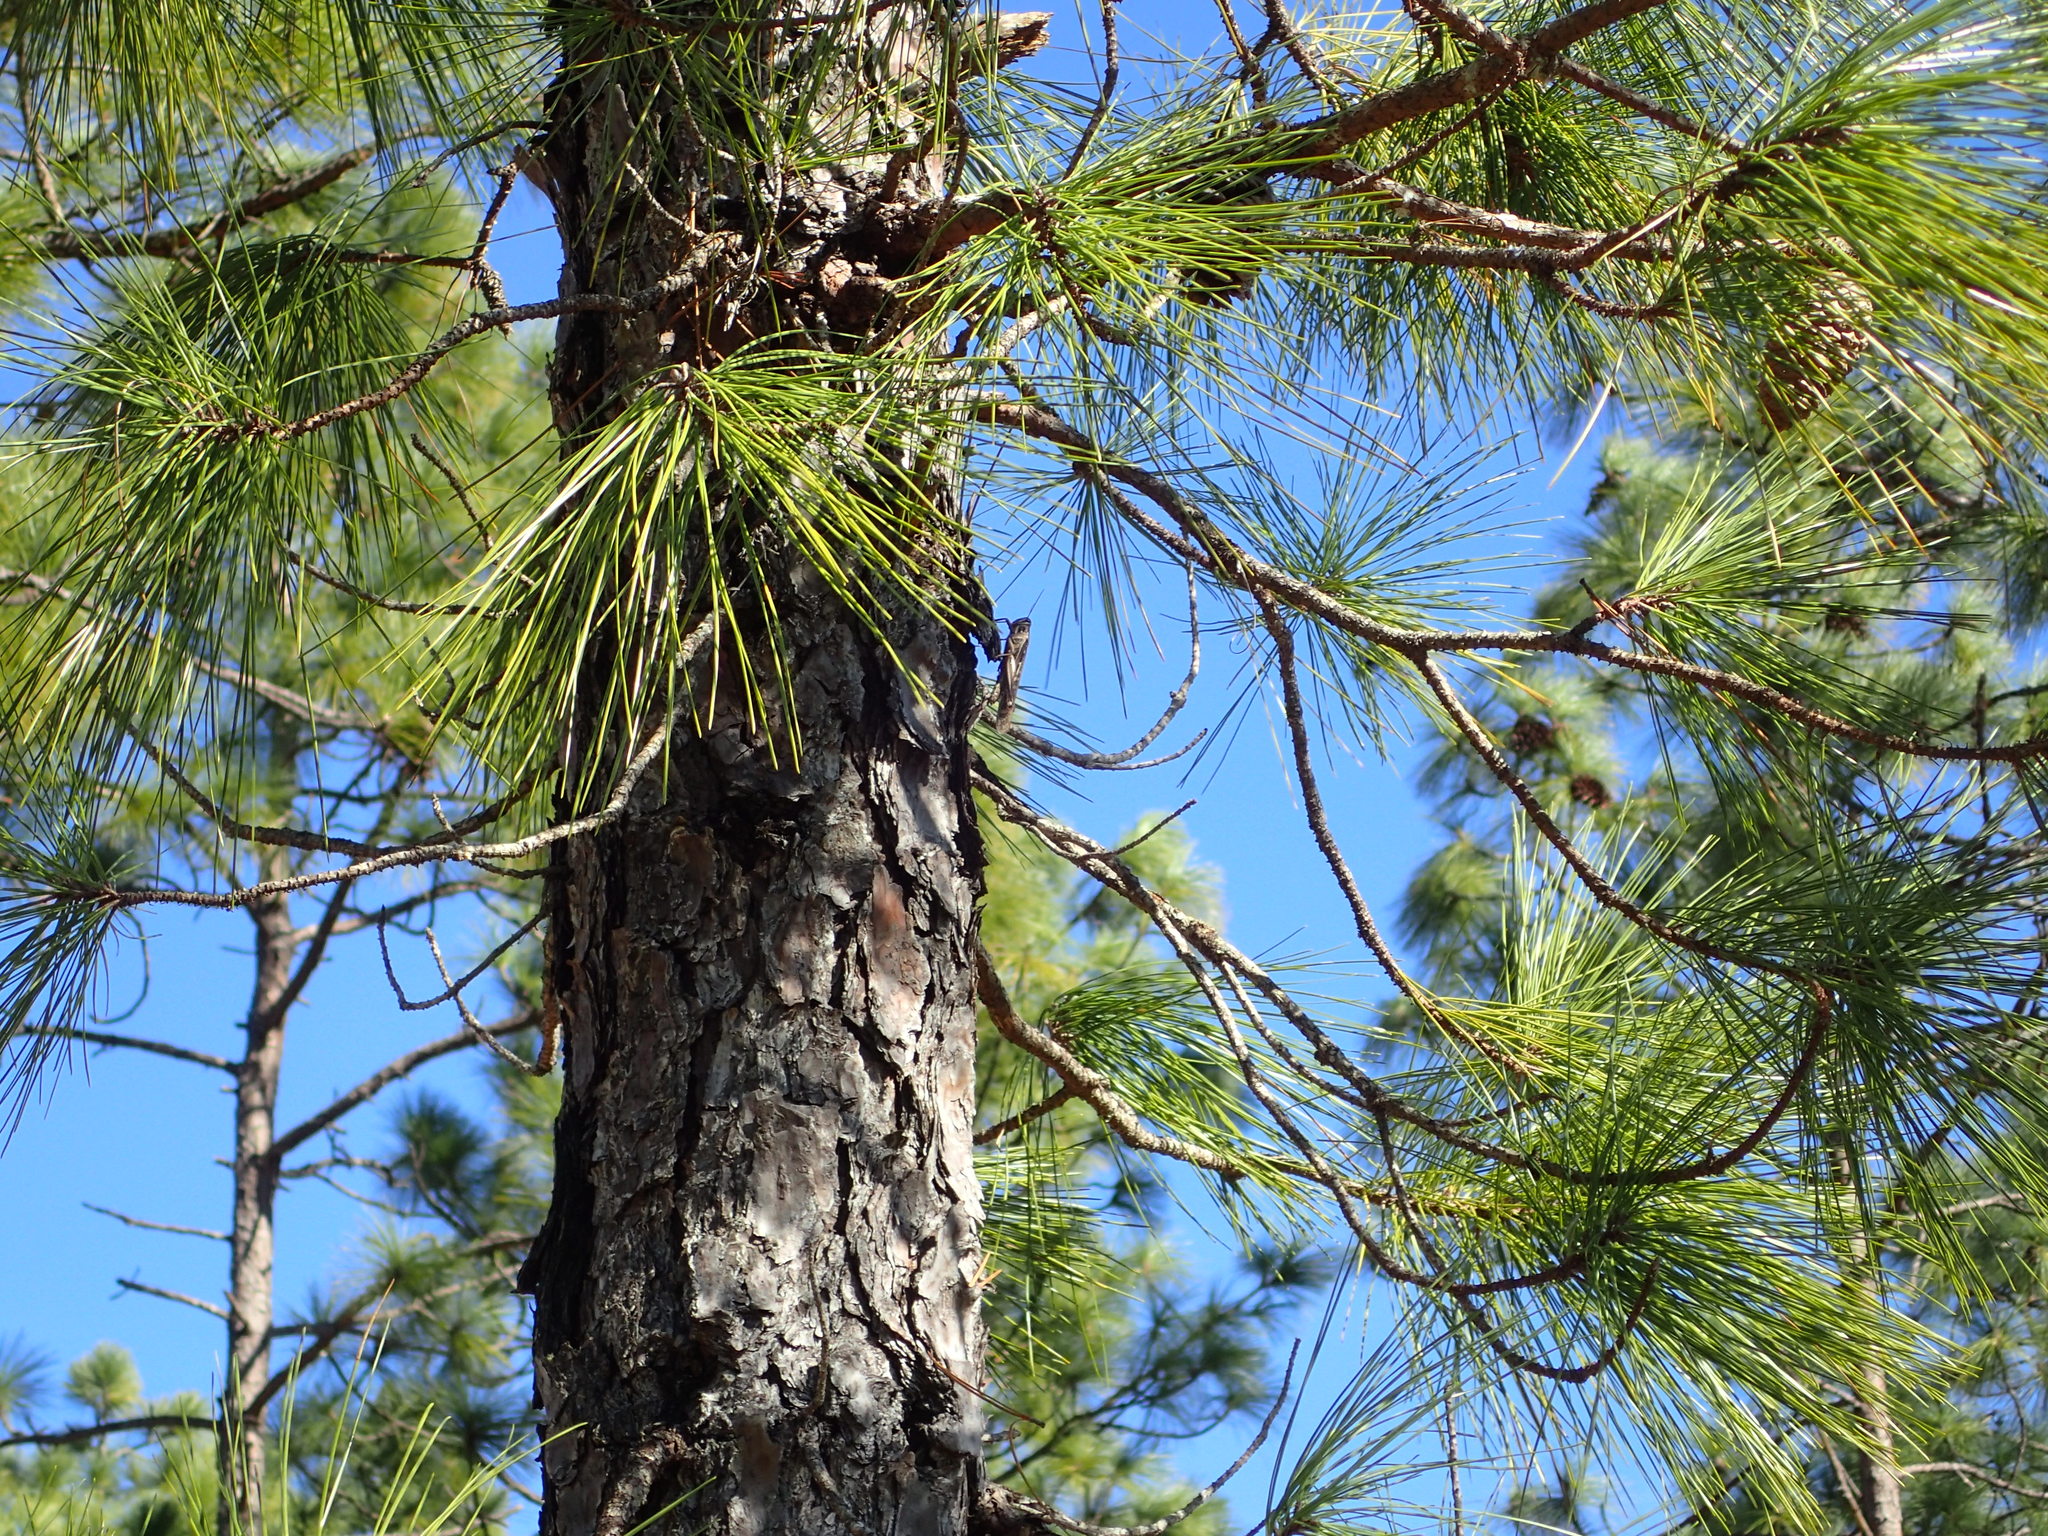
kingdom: Animalia
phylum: Arthropoda
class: Insecta
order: Orthoptera
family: Acrididae
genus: Schistocerca
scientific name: Schistocerca americana
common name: American bird locust
